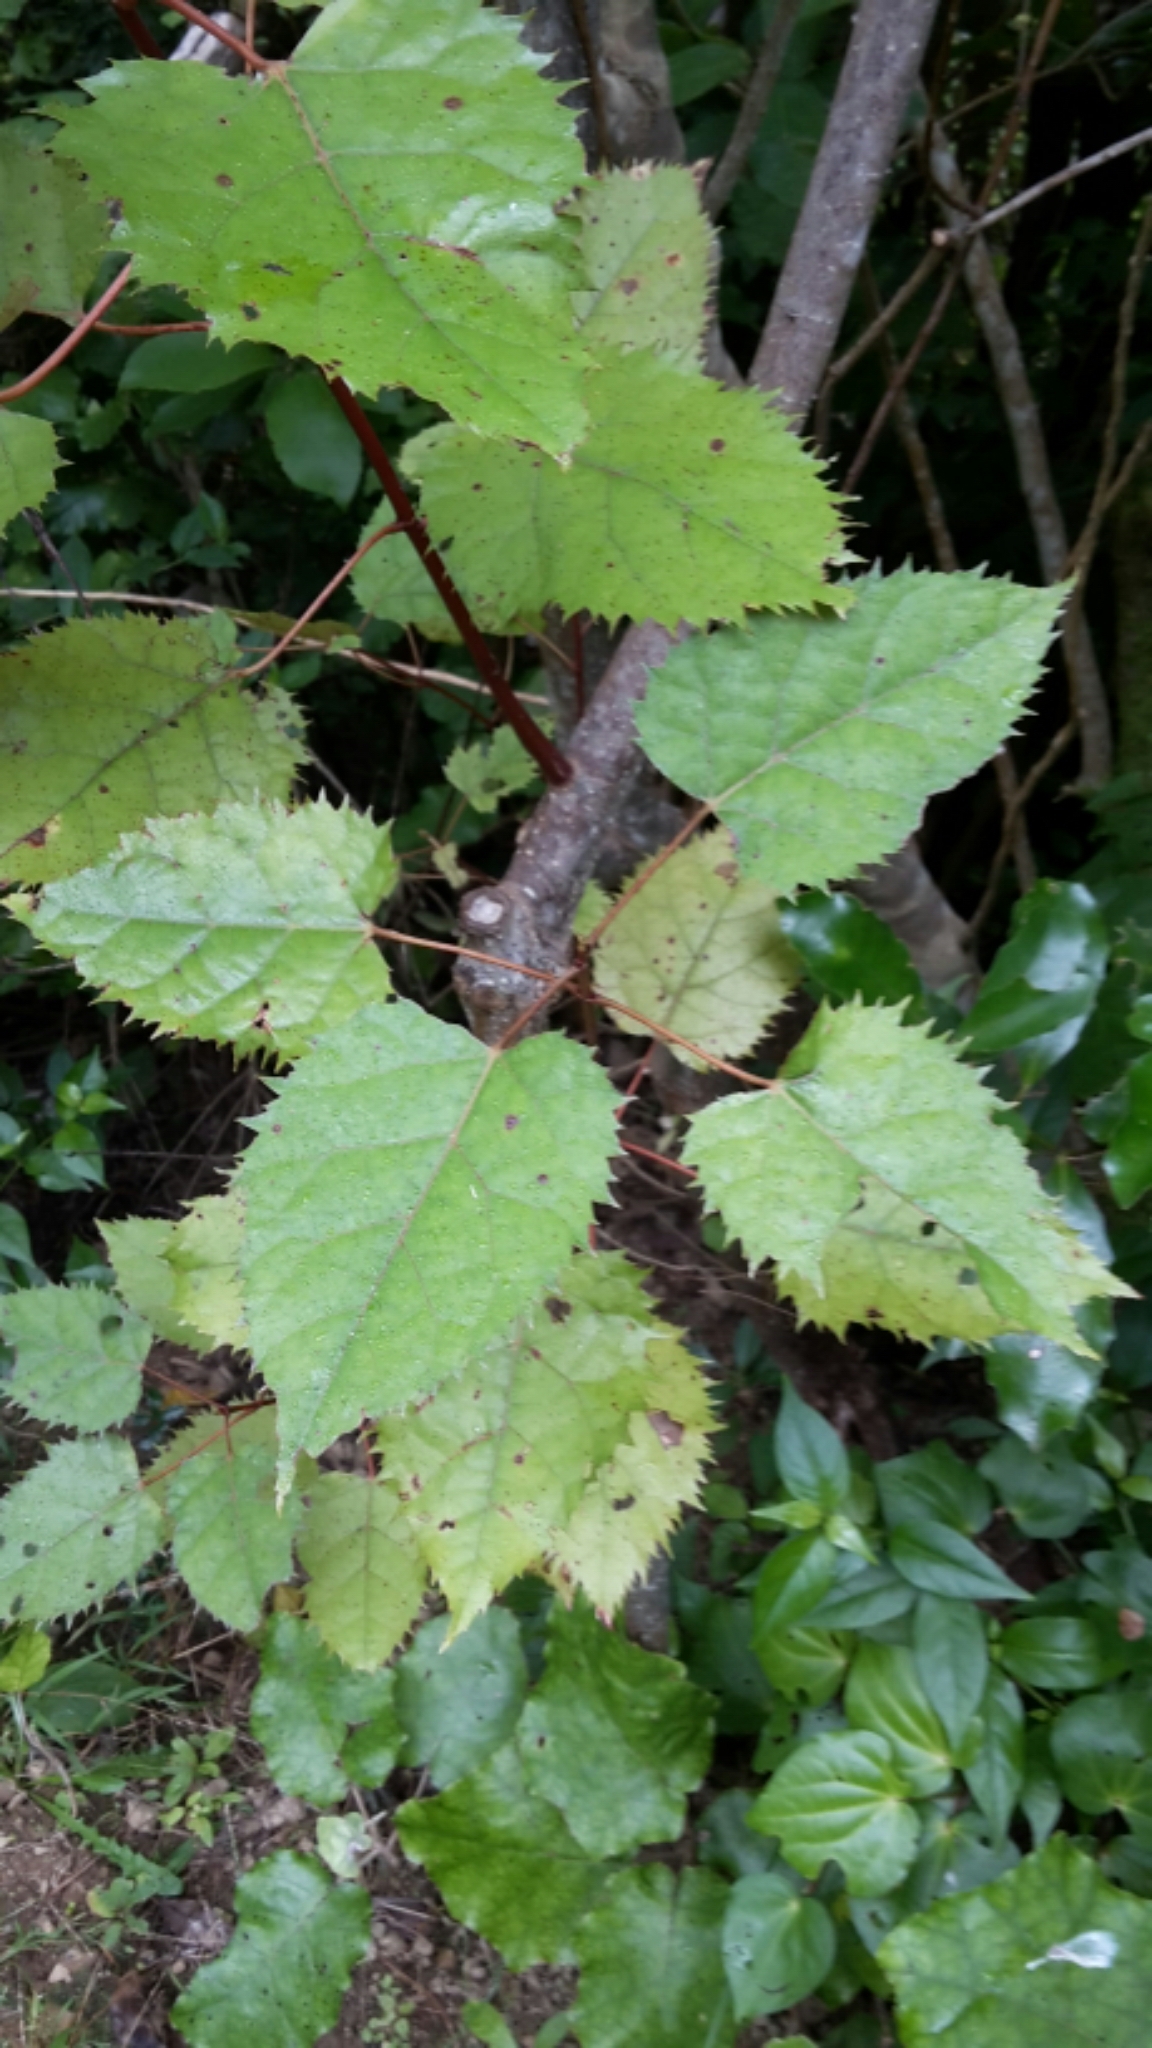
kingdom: Plantae
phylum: Tracheophyta
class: Magnoliopsida
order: Oxalidales
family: Elaeocarpaceae
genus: Aristotelia
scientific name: Aristotelia serrata
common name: New zealand wineberry
